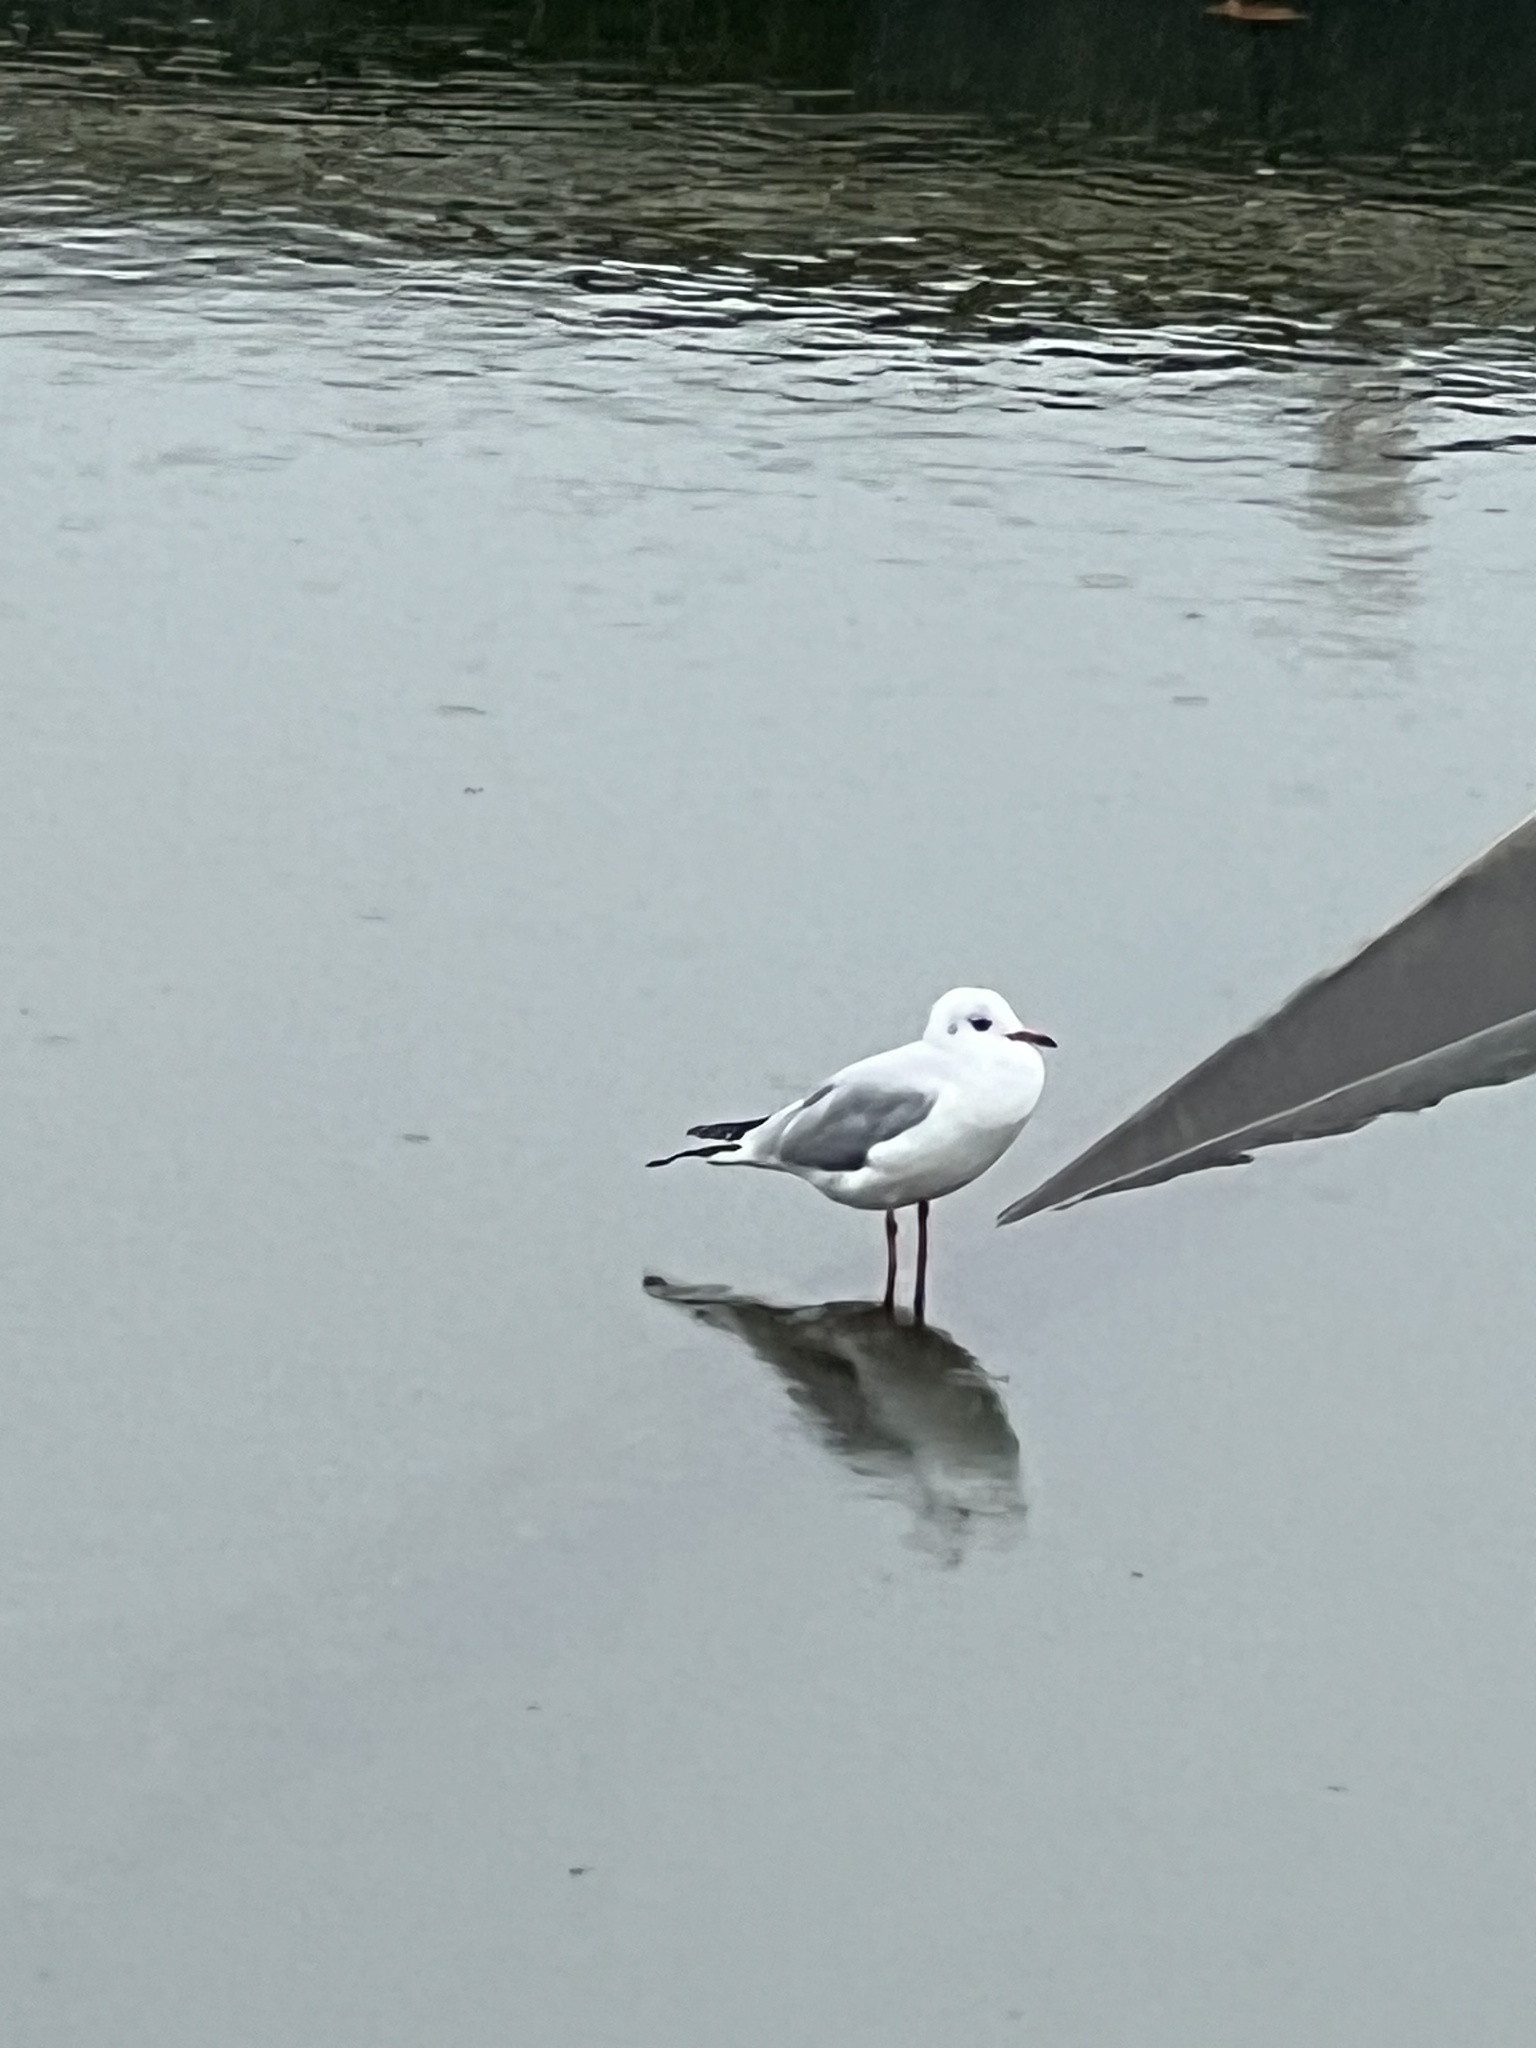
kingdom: Animalia
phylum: Chordata
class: Aves
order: Charadriiformes
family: Laridae
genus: Chroicocephalus
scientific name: Chroicocephalus ridibundus
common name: Black-headed gull
